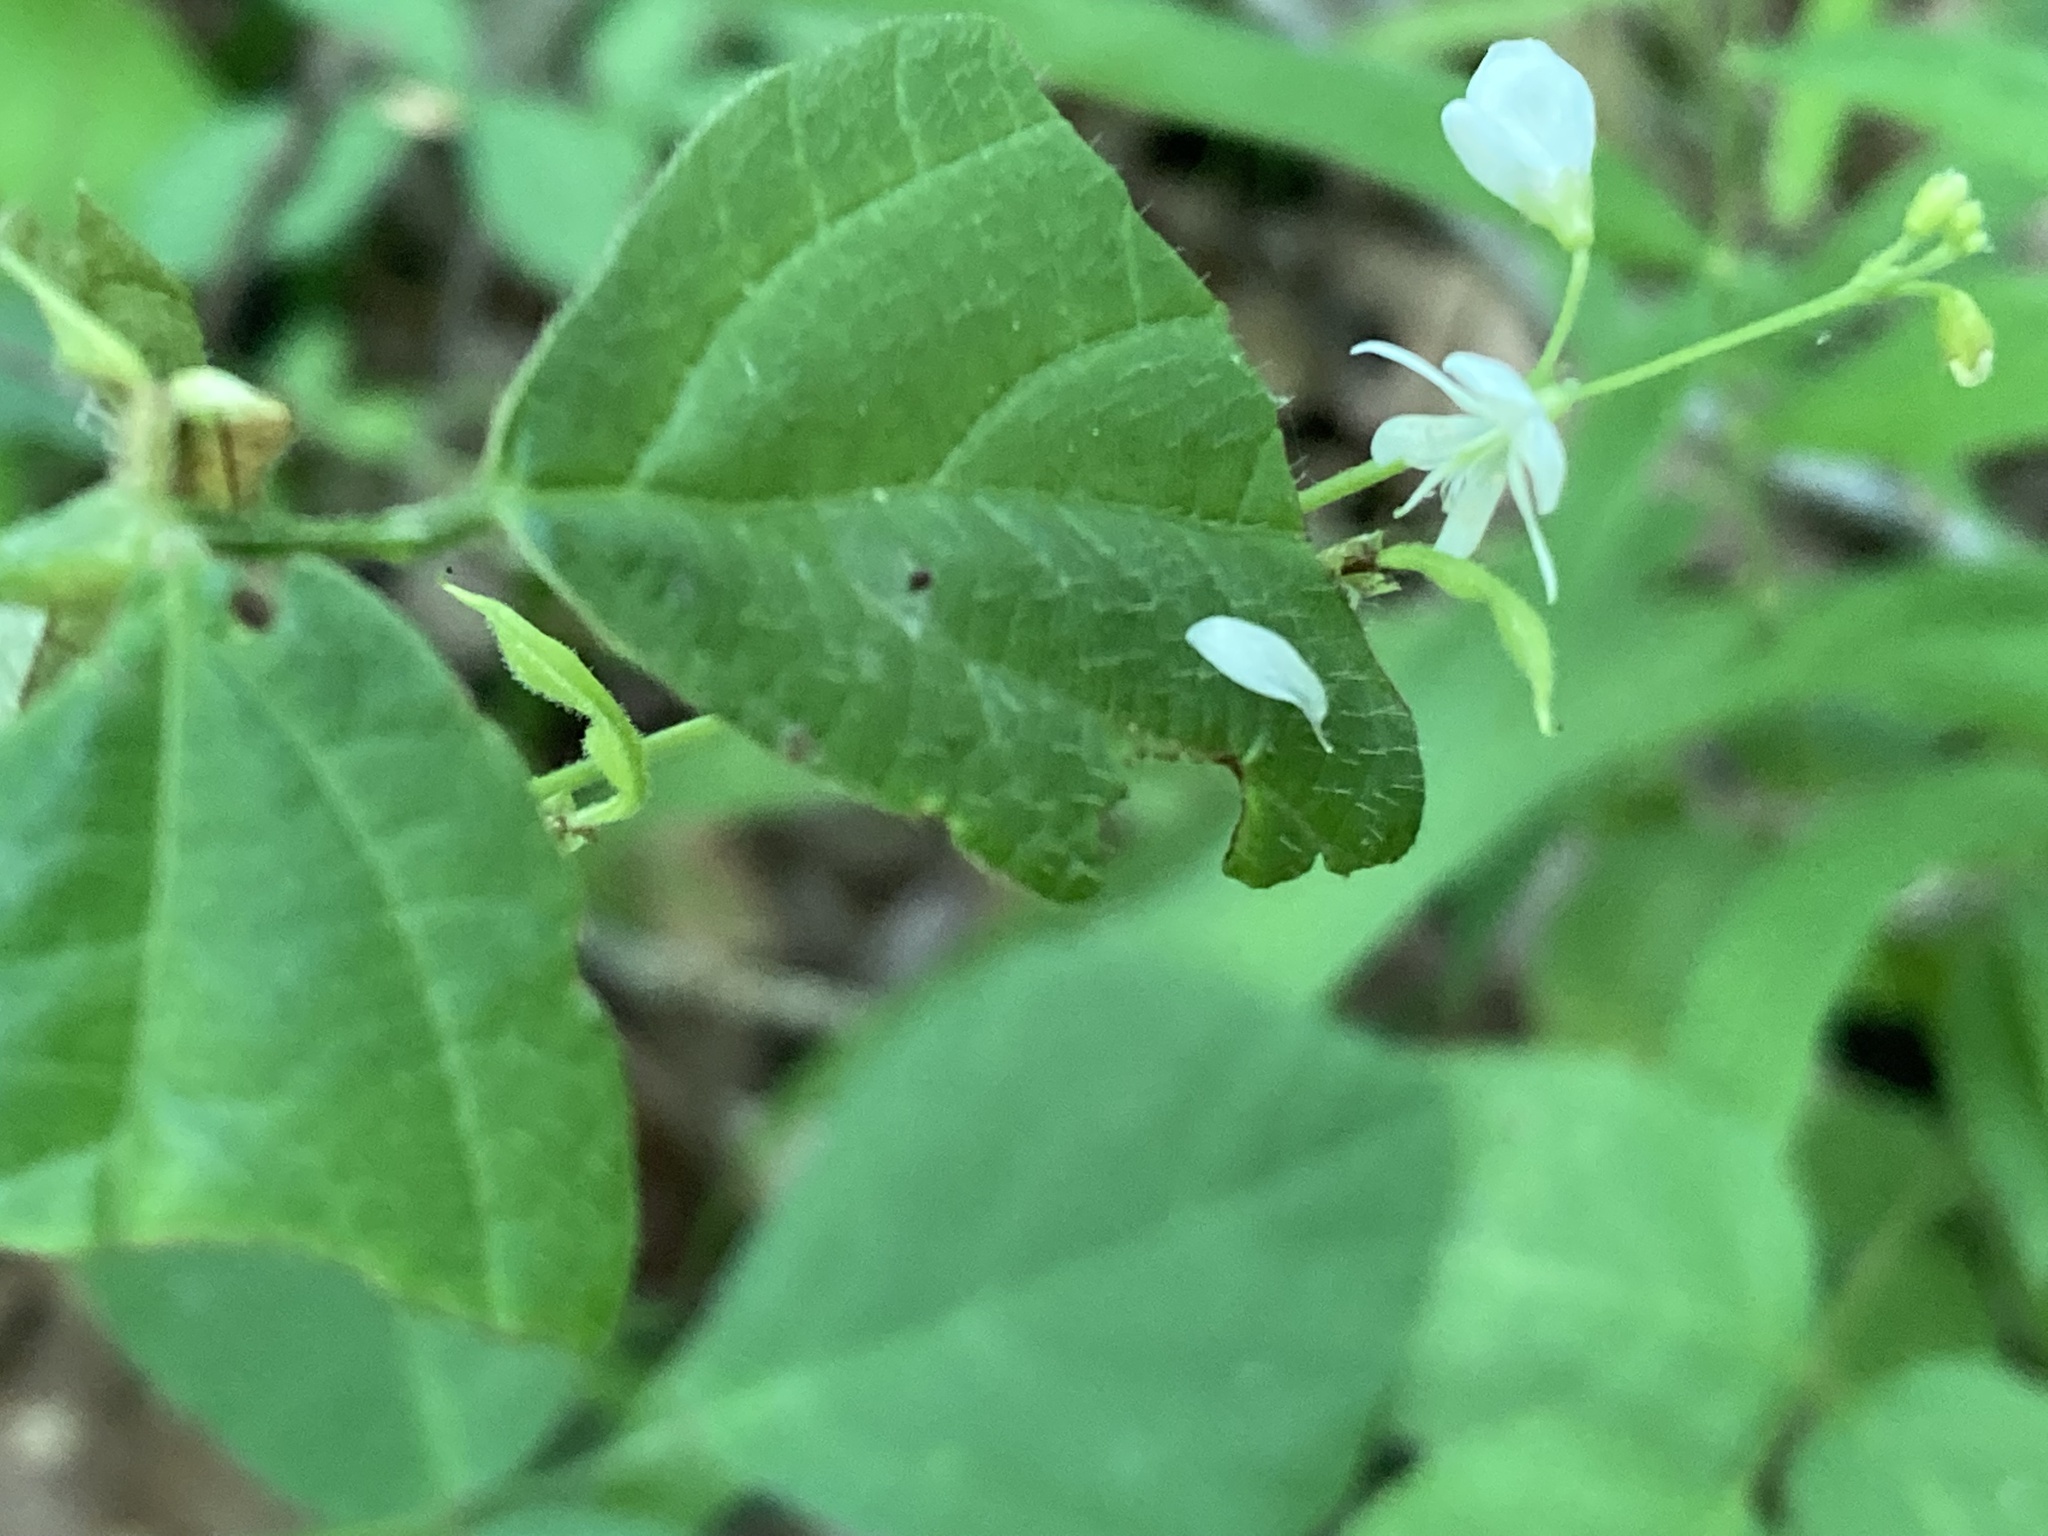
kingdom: Plantae
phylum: Tracheophyta
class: Magnoliopsida
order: Fabales
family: Fabaceae
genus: Hylodesmum
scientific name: Hylodesmum pauciflorum
